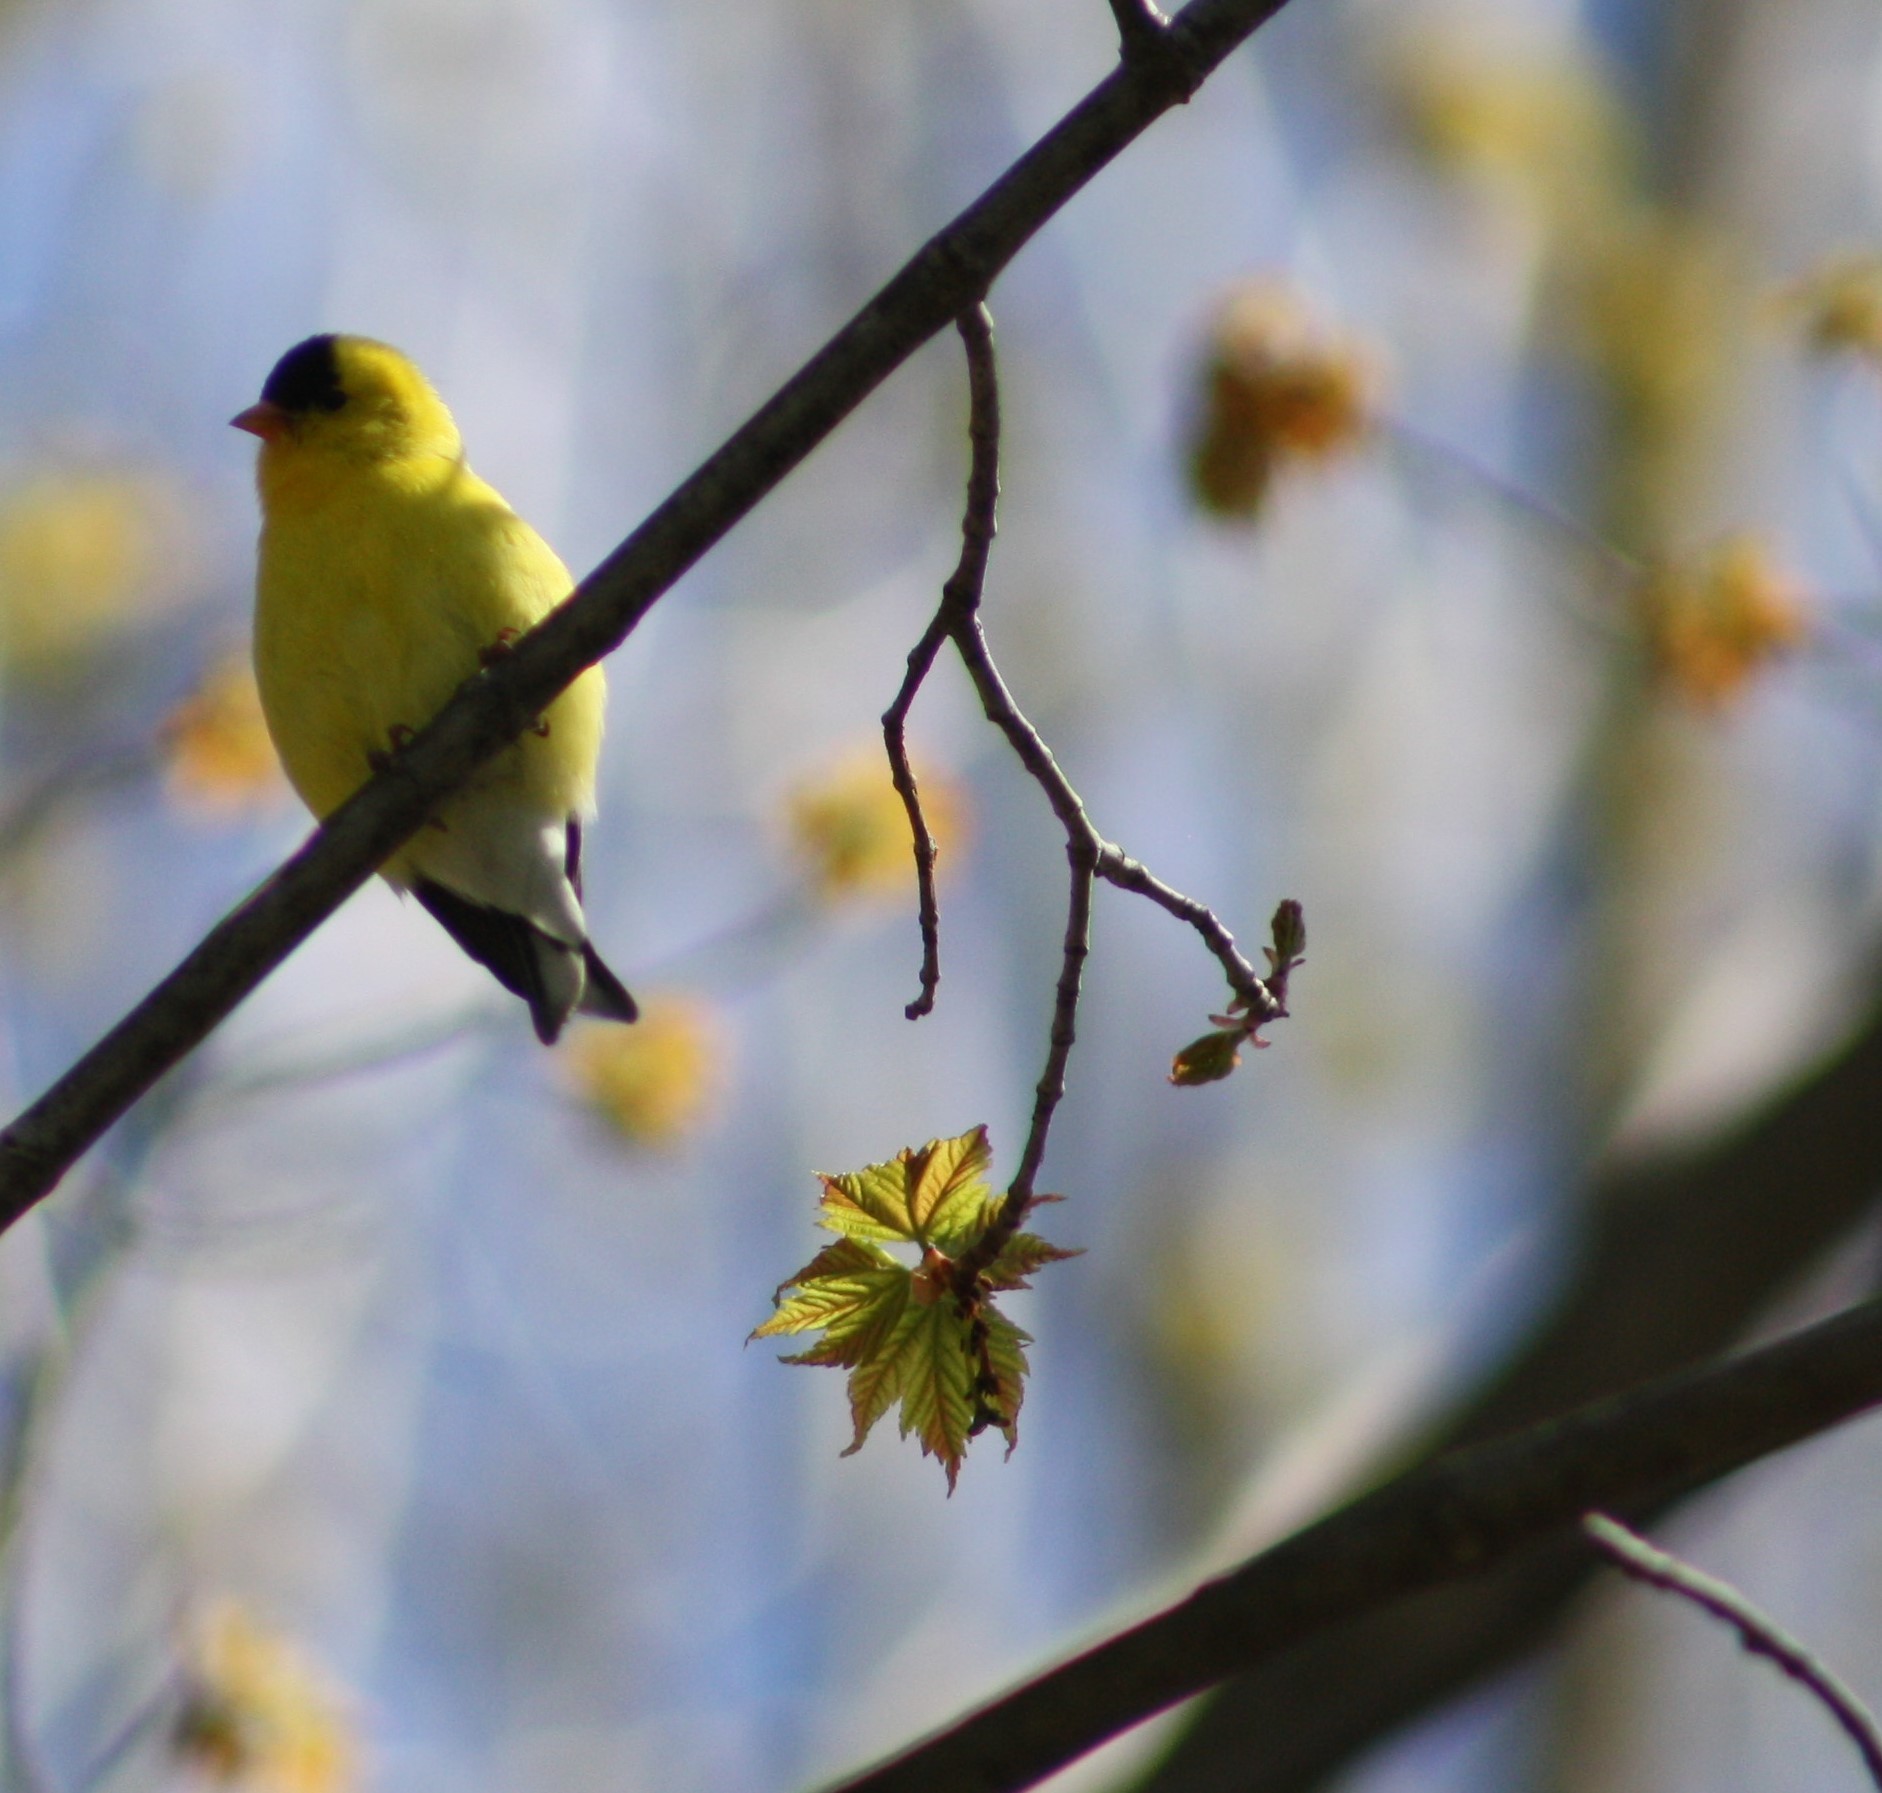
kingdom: Animalia
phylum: Chordata
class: Aves
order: Passeriformes
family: Fringillidae
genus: Spinus
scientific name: Spinus tristis
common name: American goldfinch
